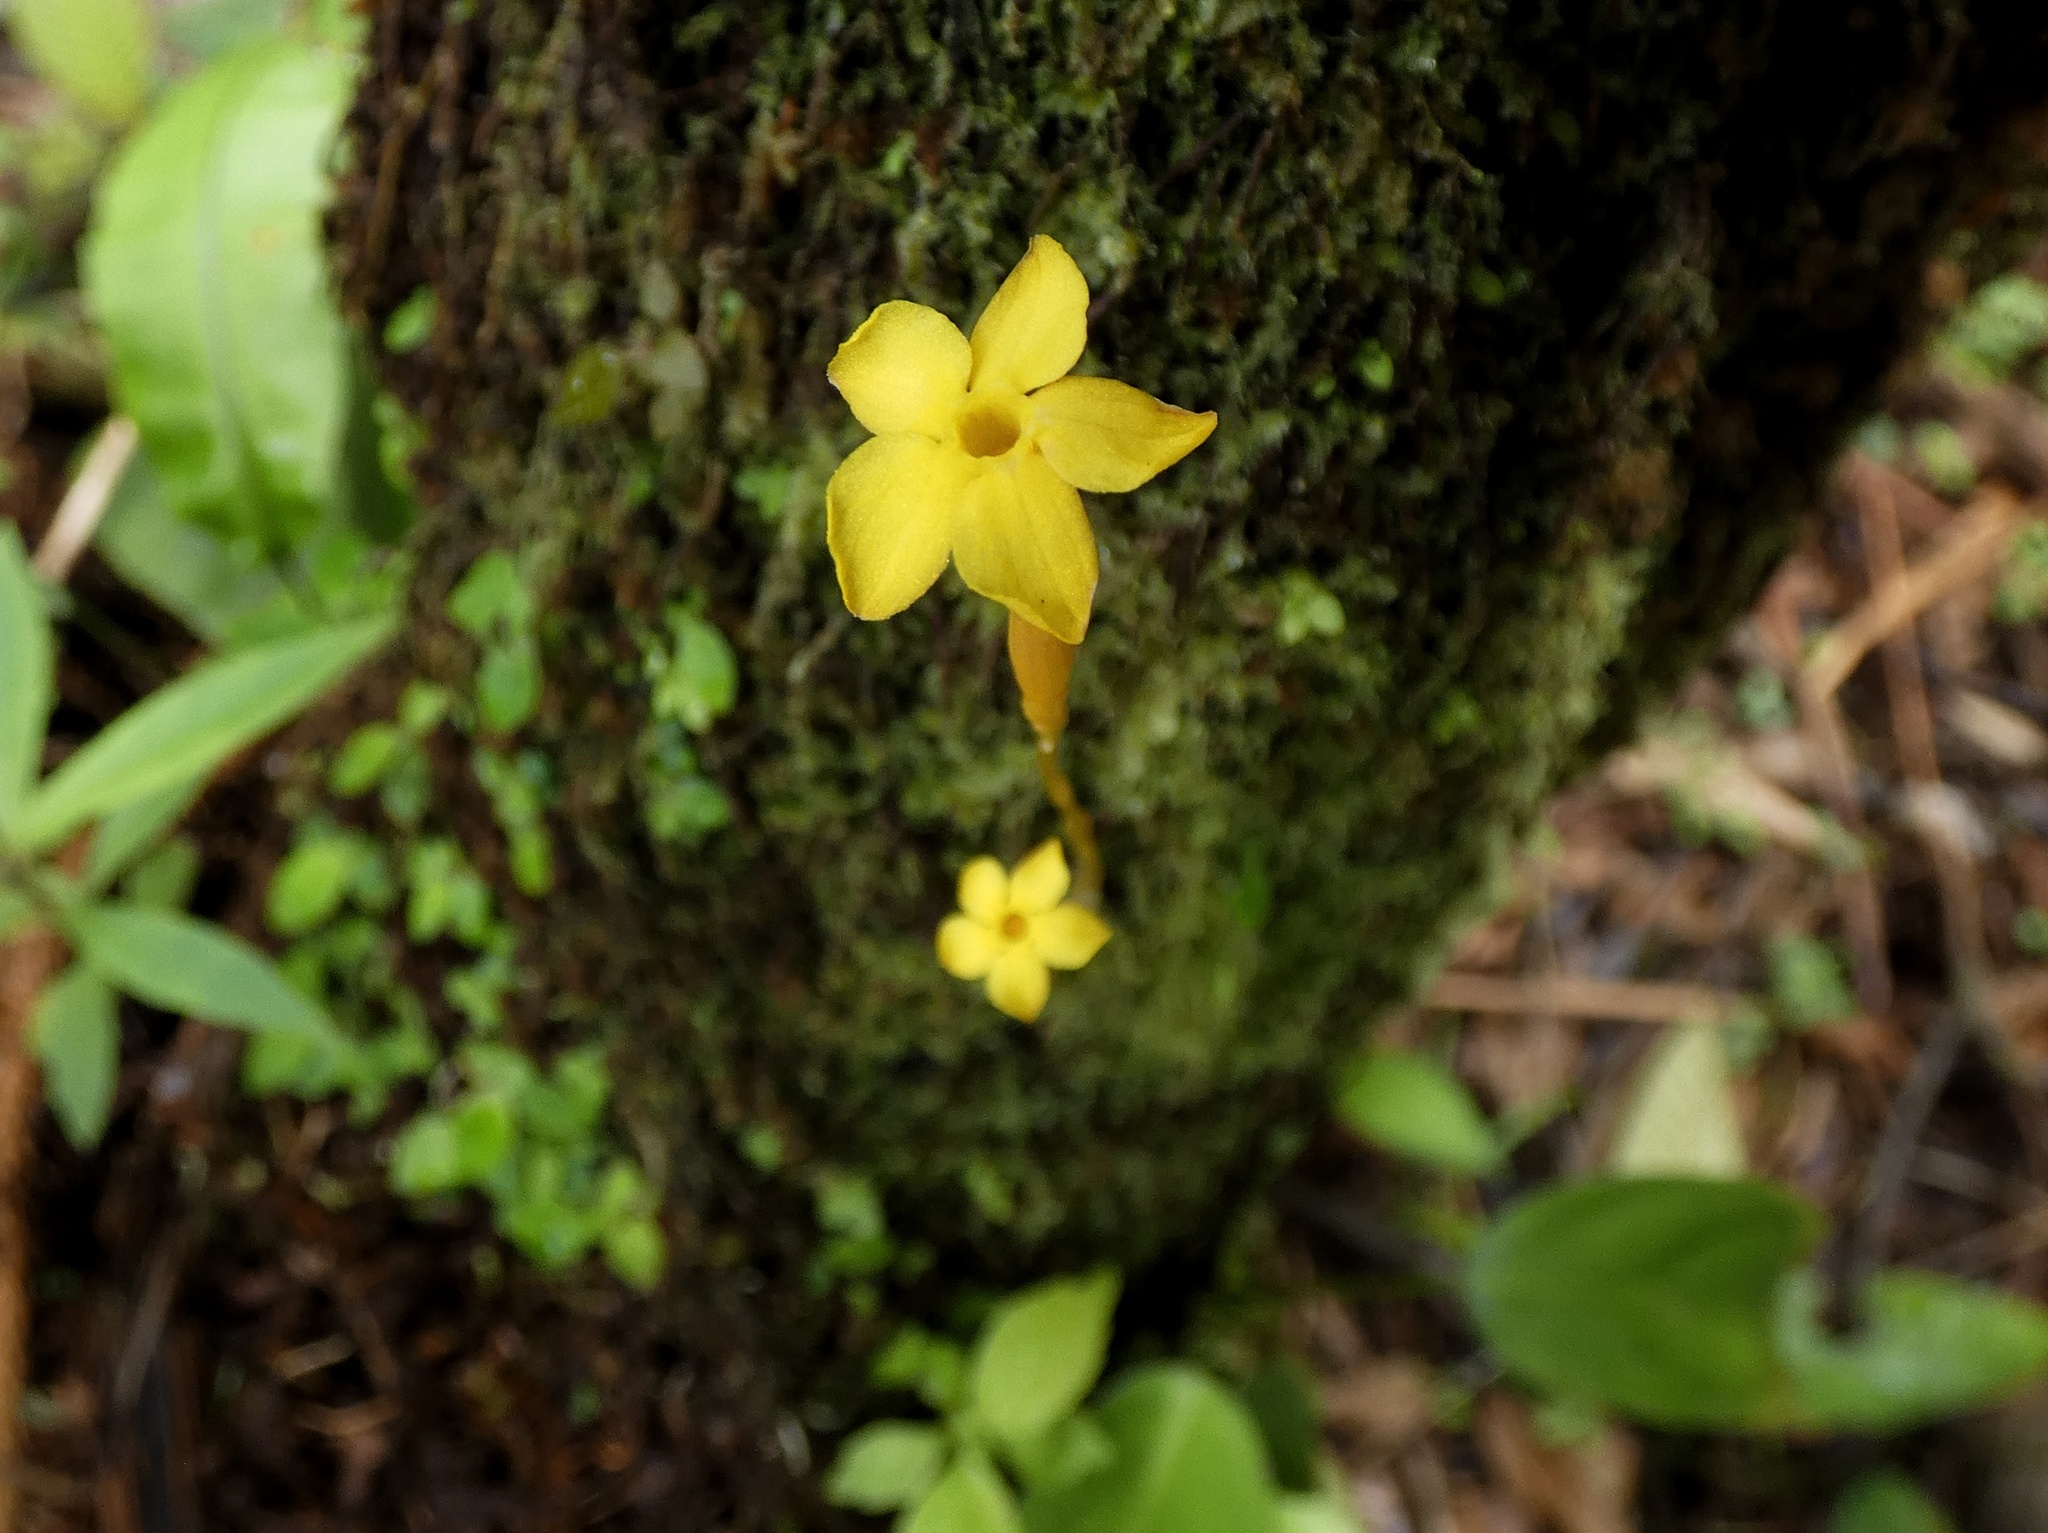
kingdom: Plantae
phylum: Tracheophyta
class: Magnoliopsida
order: Gentianales
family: Gentianaceae
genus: Voyria
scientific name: Voyria aphylla
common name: Leafless ghost plant
